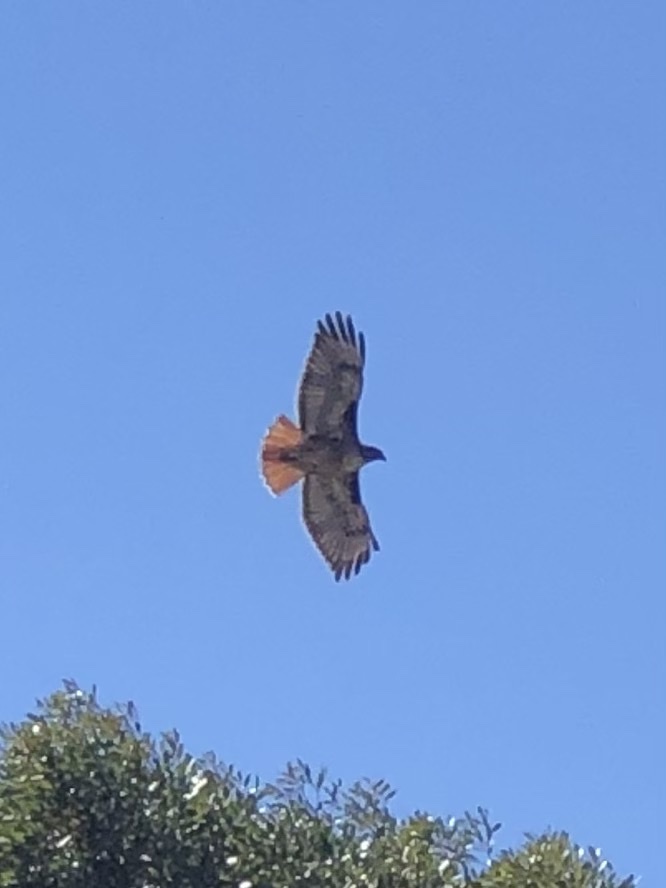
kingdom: Animalia
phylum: Chordata
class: Aves
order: Accipitriformes
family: Accipitridae
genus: Buteo
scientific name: Buteo jamaicensis
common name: Red-tailed hawk
